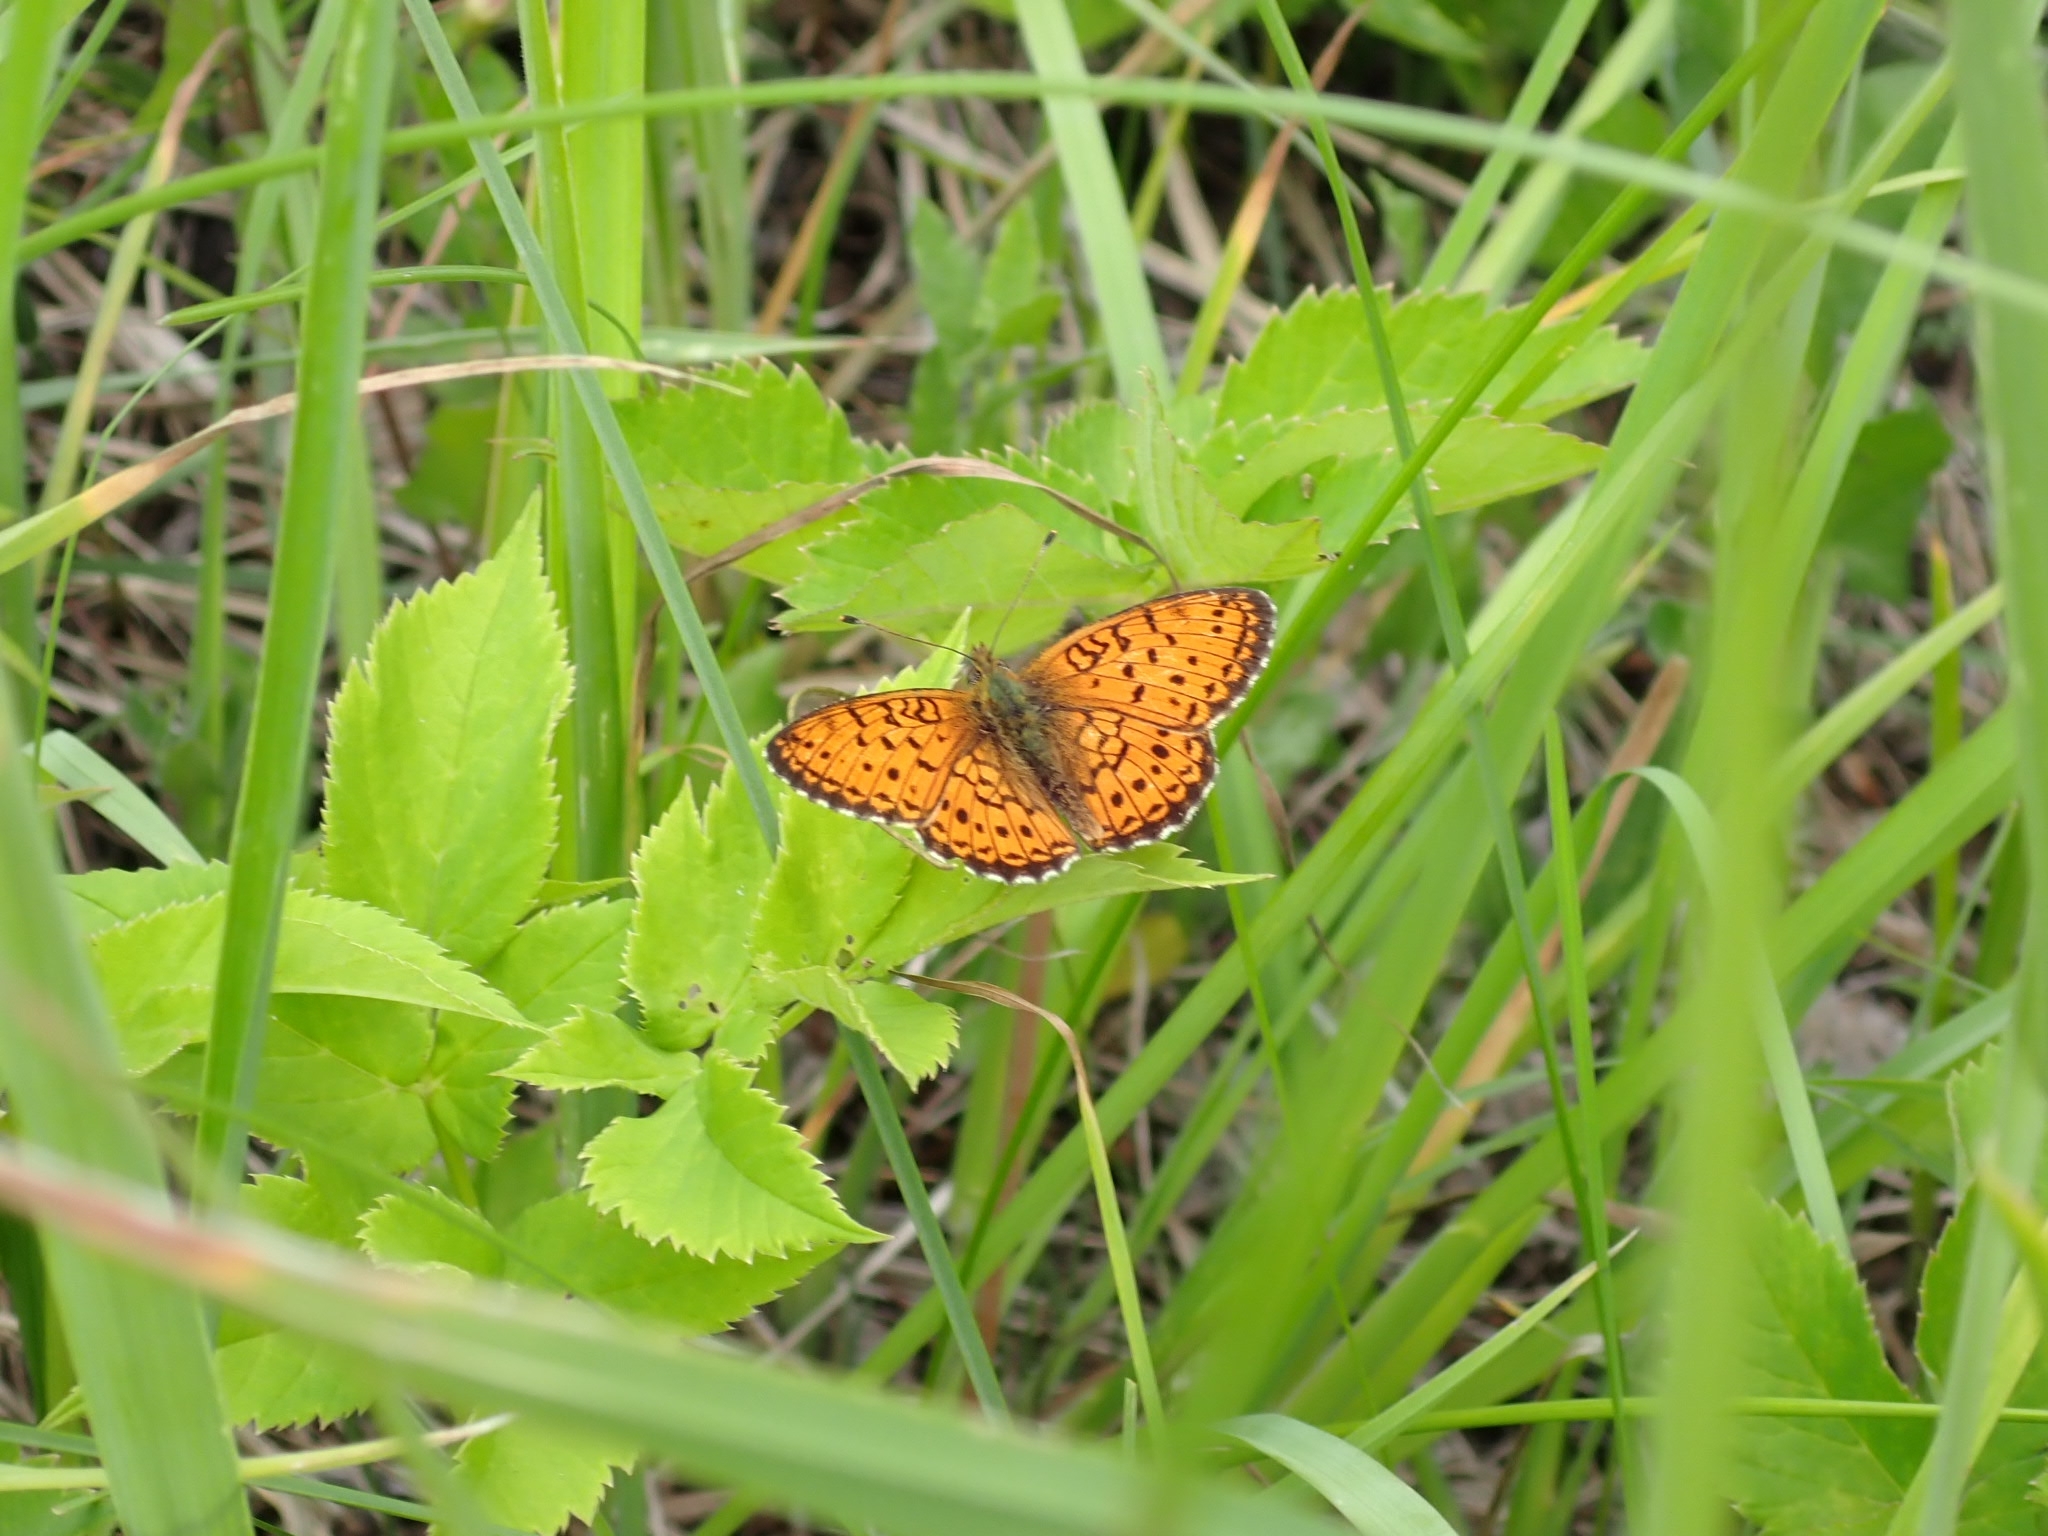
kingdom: Animalia
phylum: Arthropoda
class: Insecta
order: Lepidoptera
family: Nymphalidae
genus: Fabriciana
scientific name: Fabriciana adippe
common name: High brown fritillary
